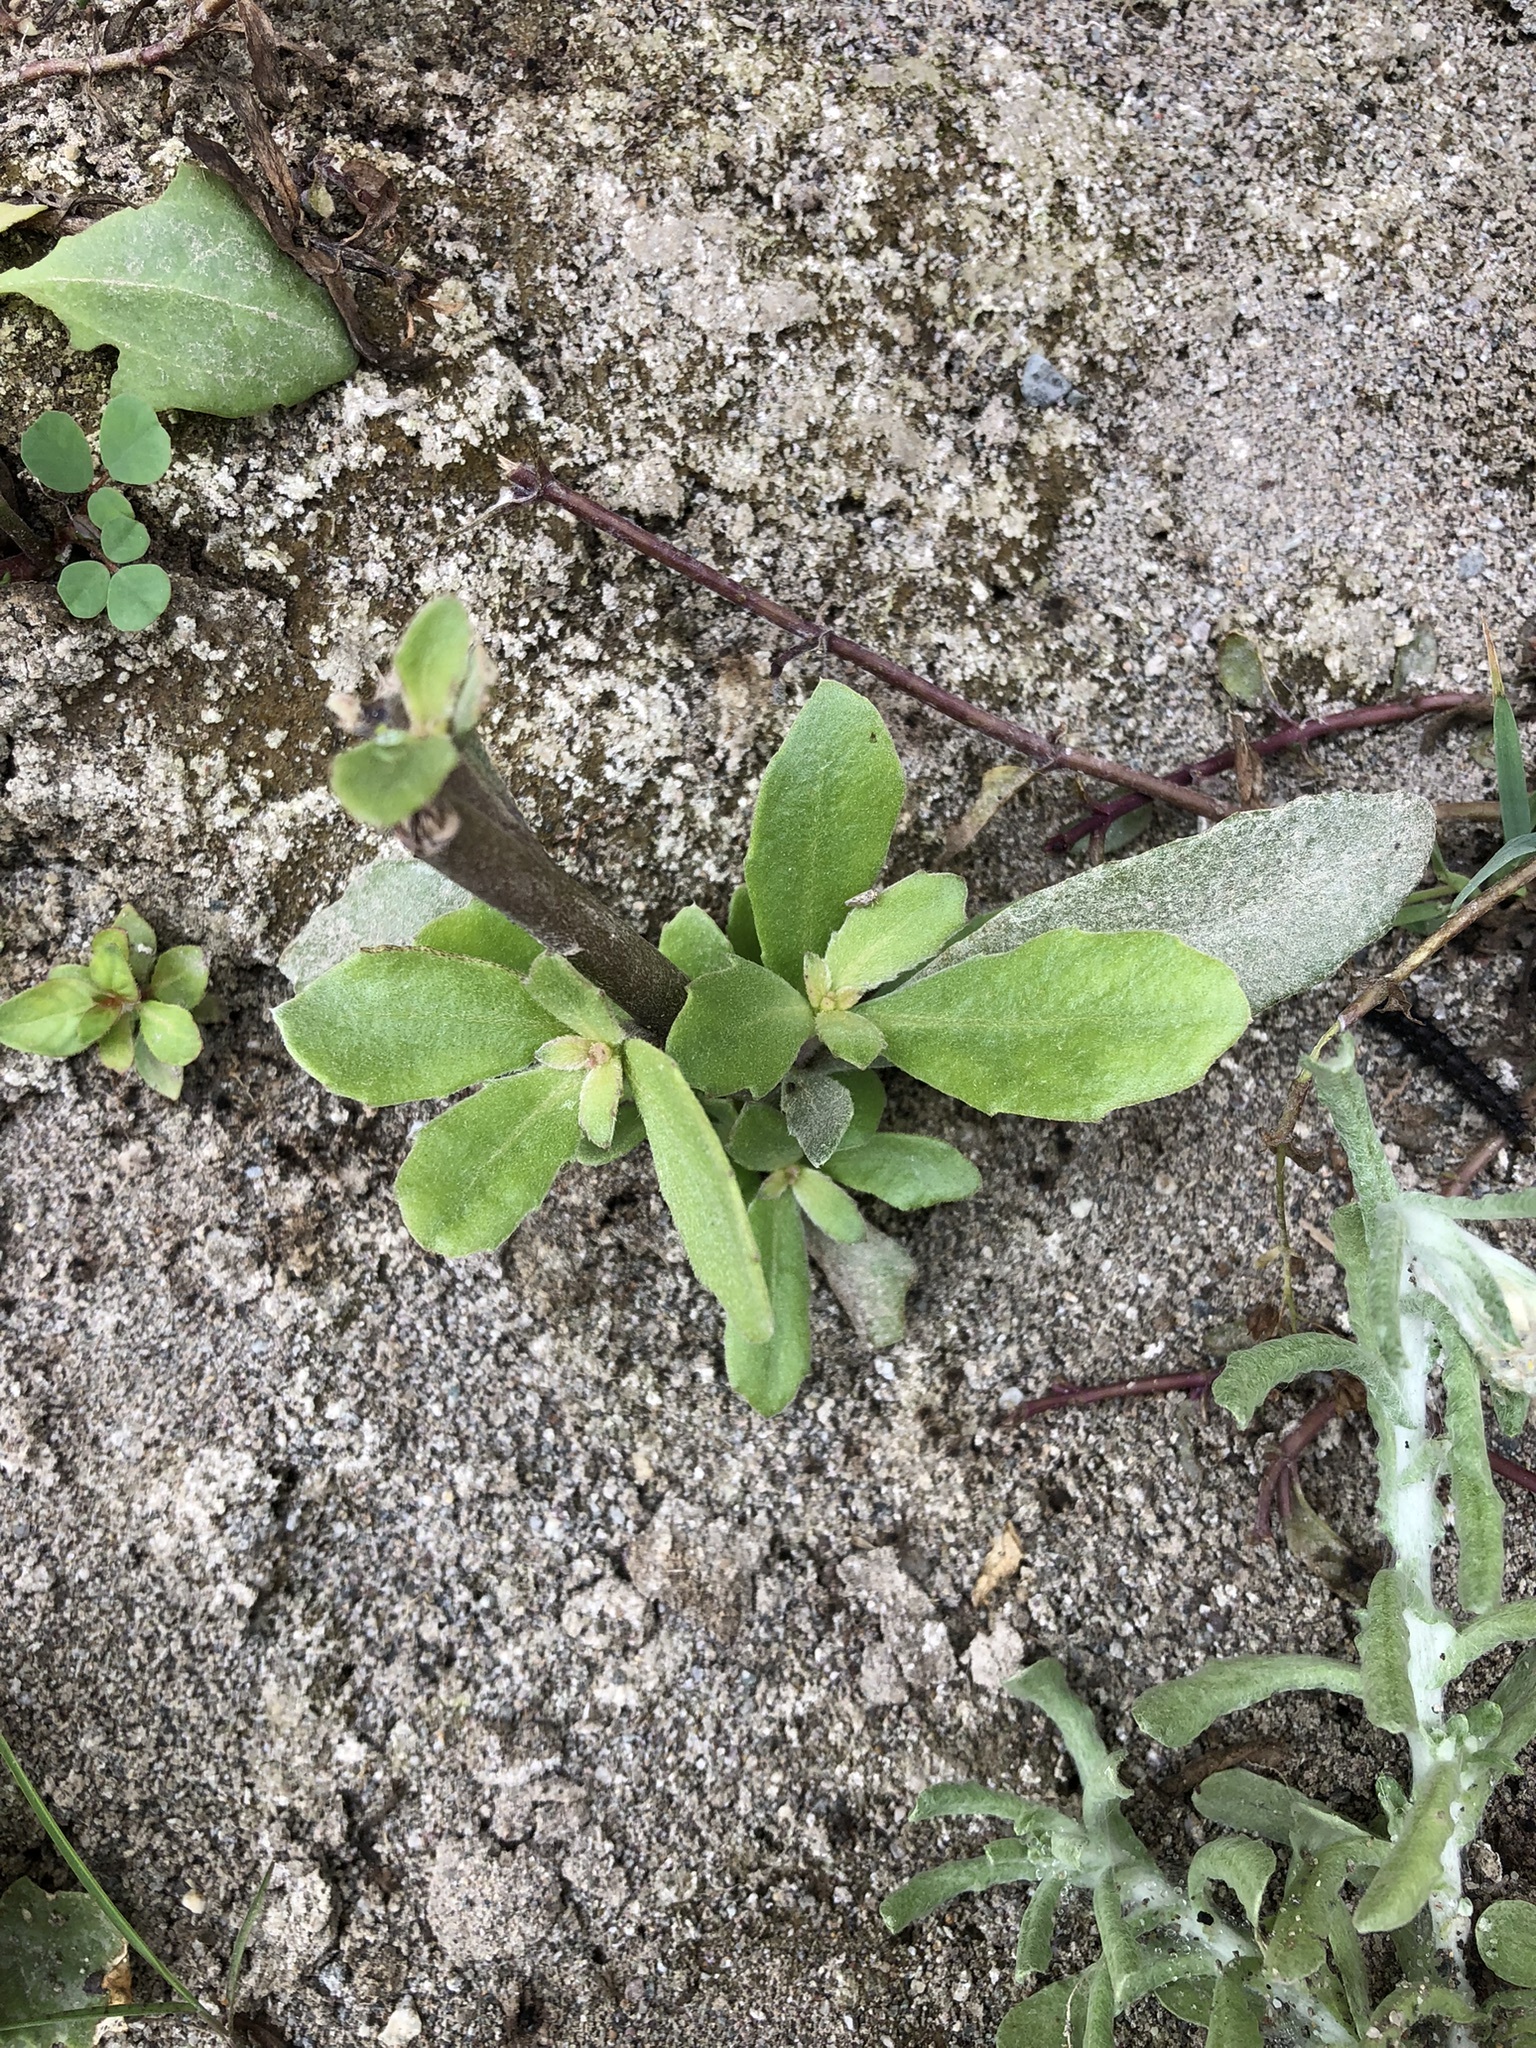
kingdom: Plantae
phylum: Tracheophyta
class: Magnoliopsida
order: Lamiales
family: Verbenaceae
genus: Phyla
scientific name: Phyla nodiflora
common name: Frogfruit
